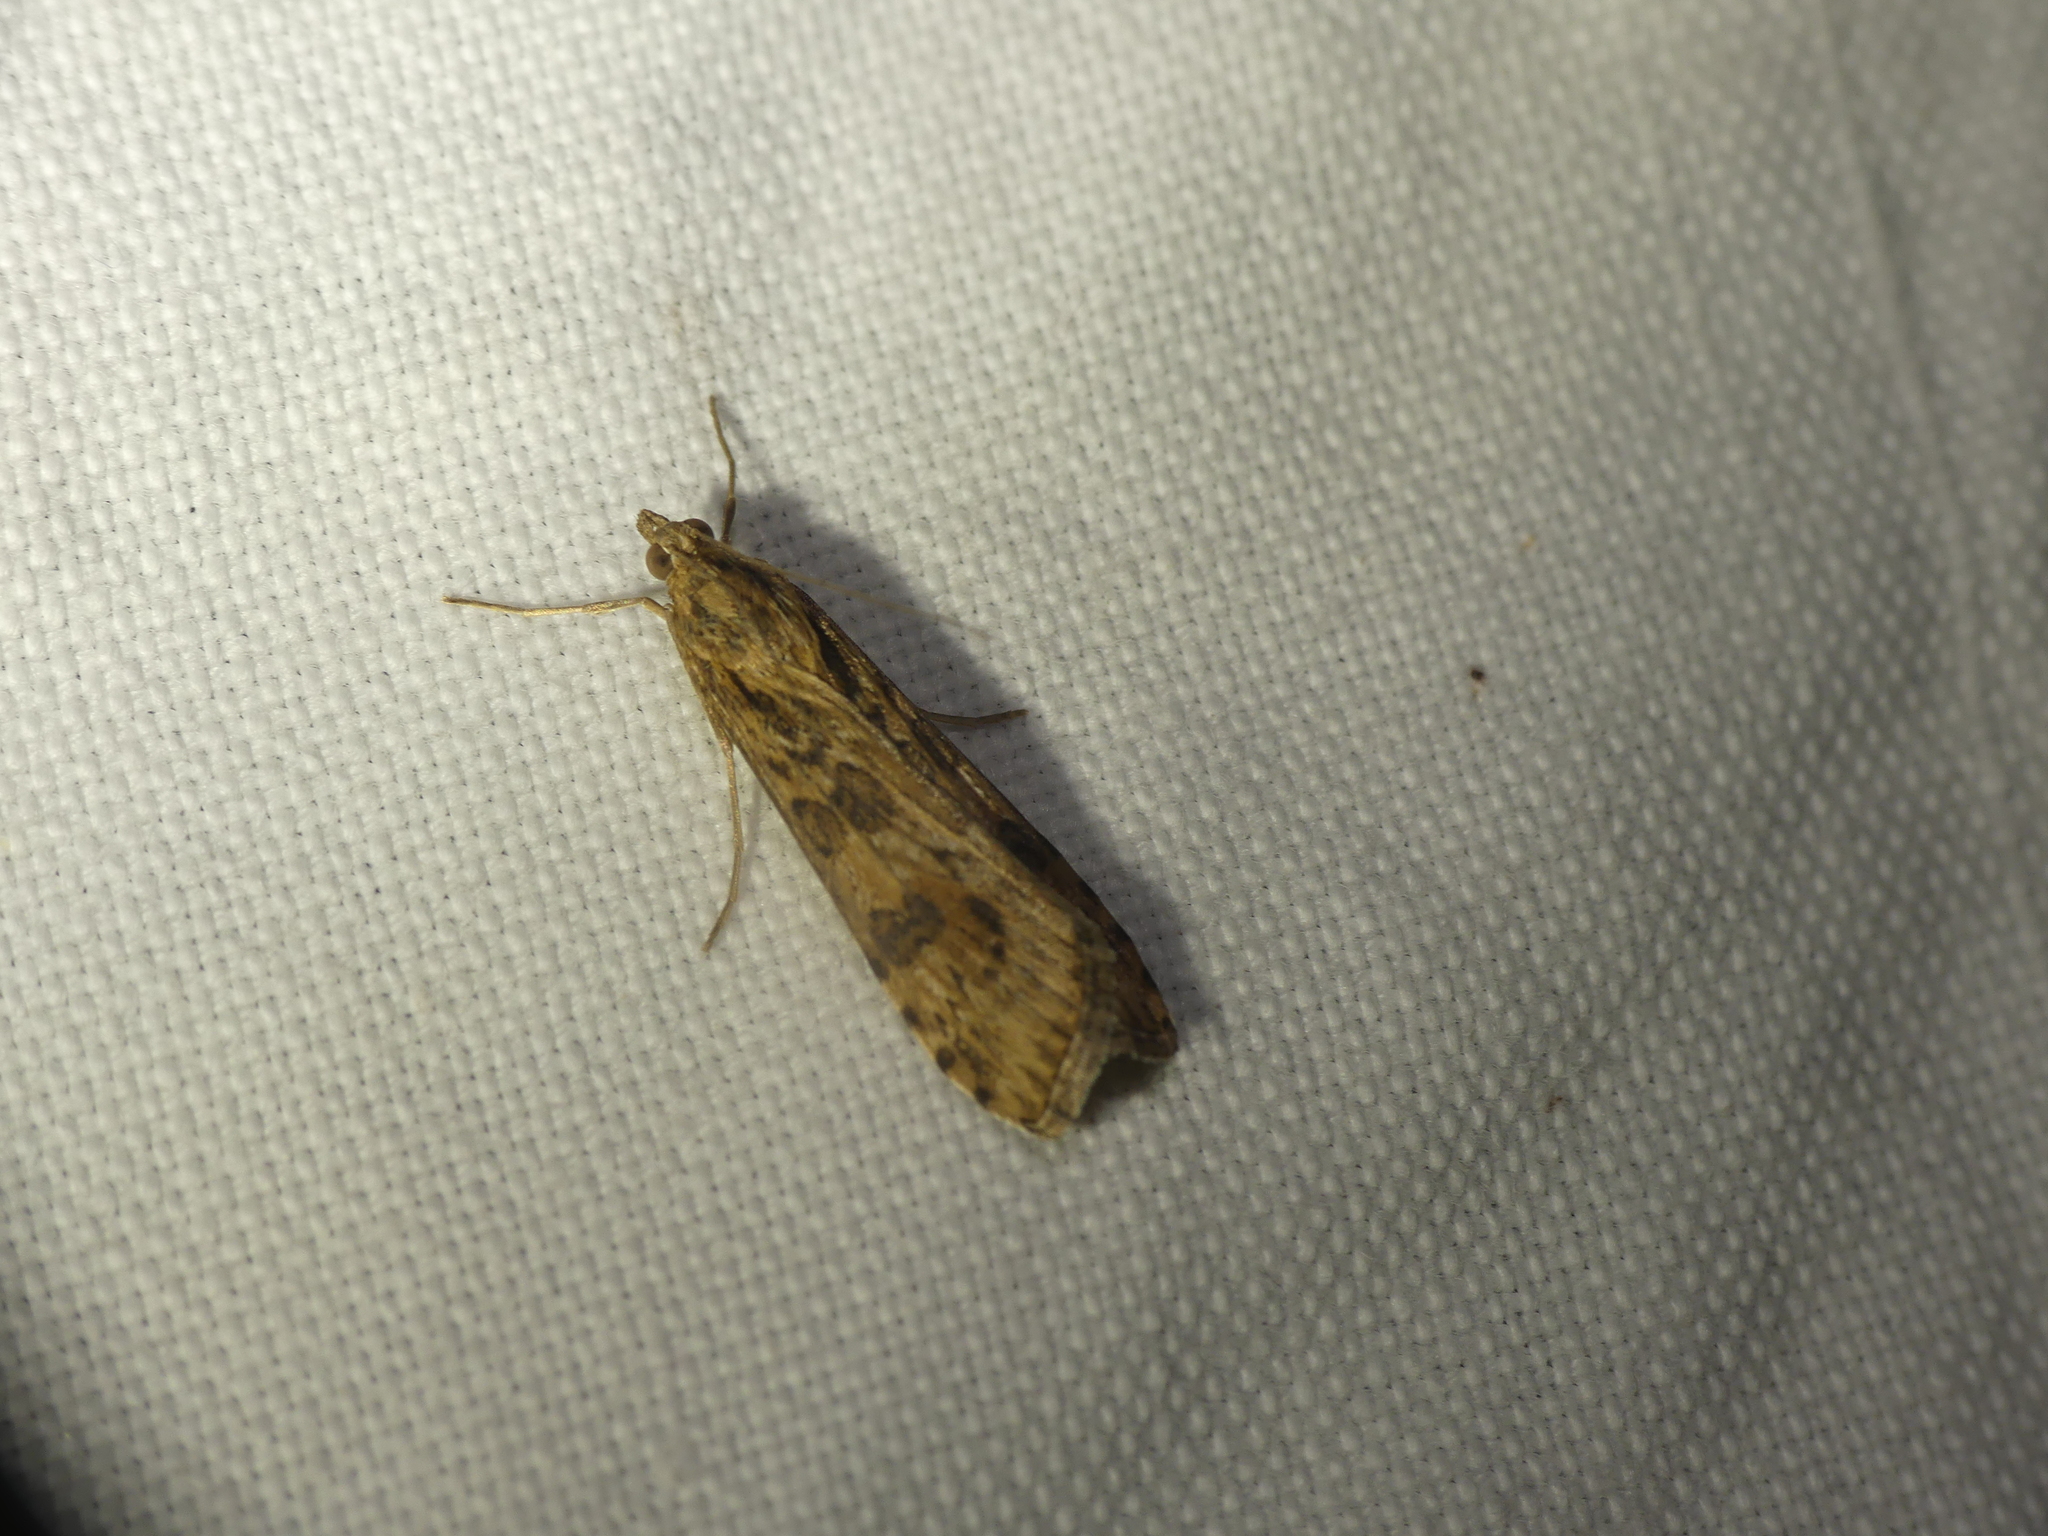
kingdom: Animalia
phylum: Arthropoda
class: Insecta
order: Lepidoptera
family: Crambidae
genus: Nomophila
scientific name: Nomophila noctuella
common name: Rush veneer
